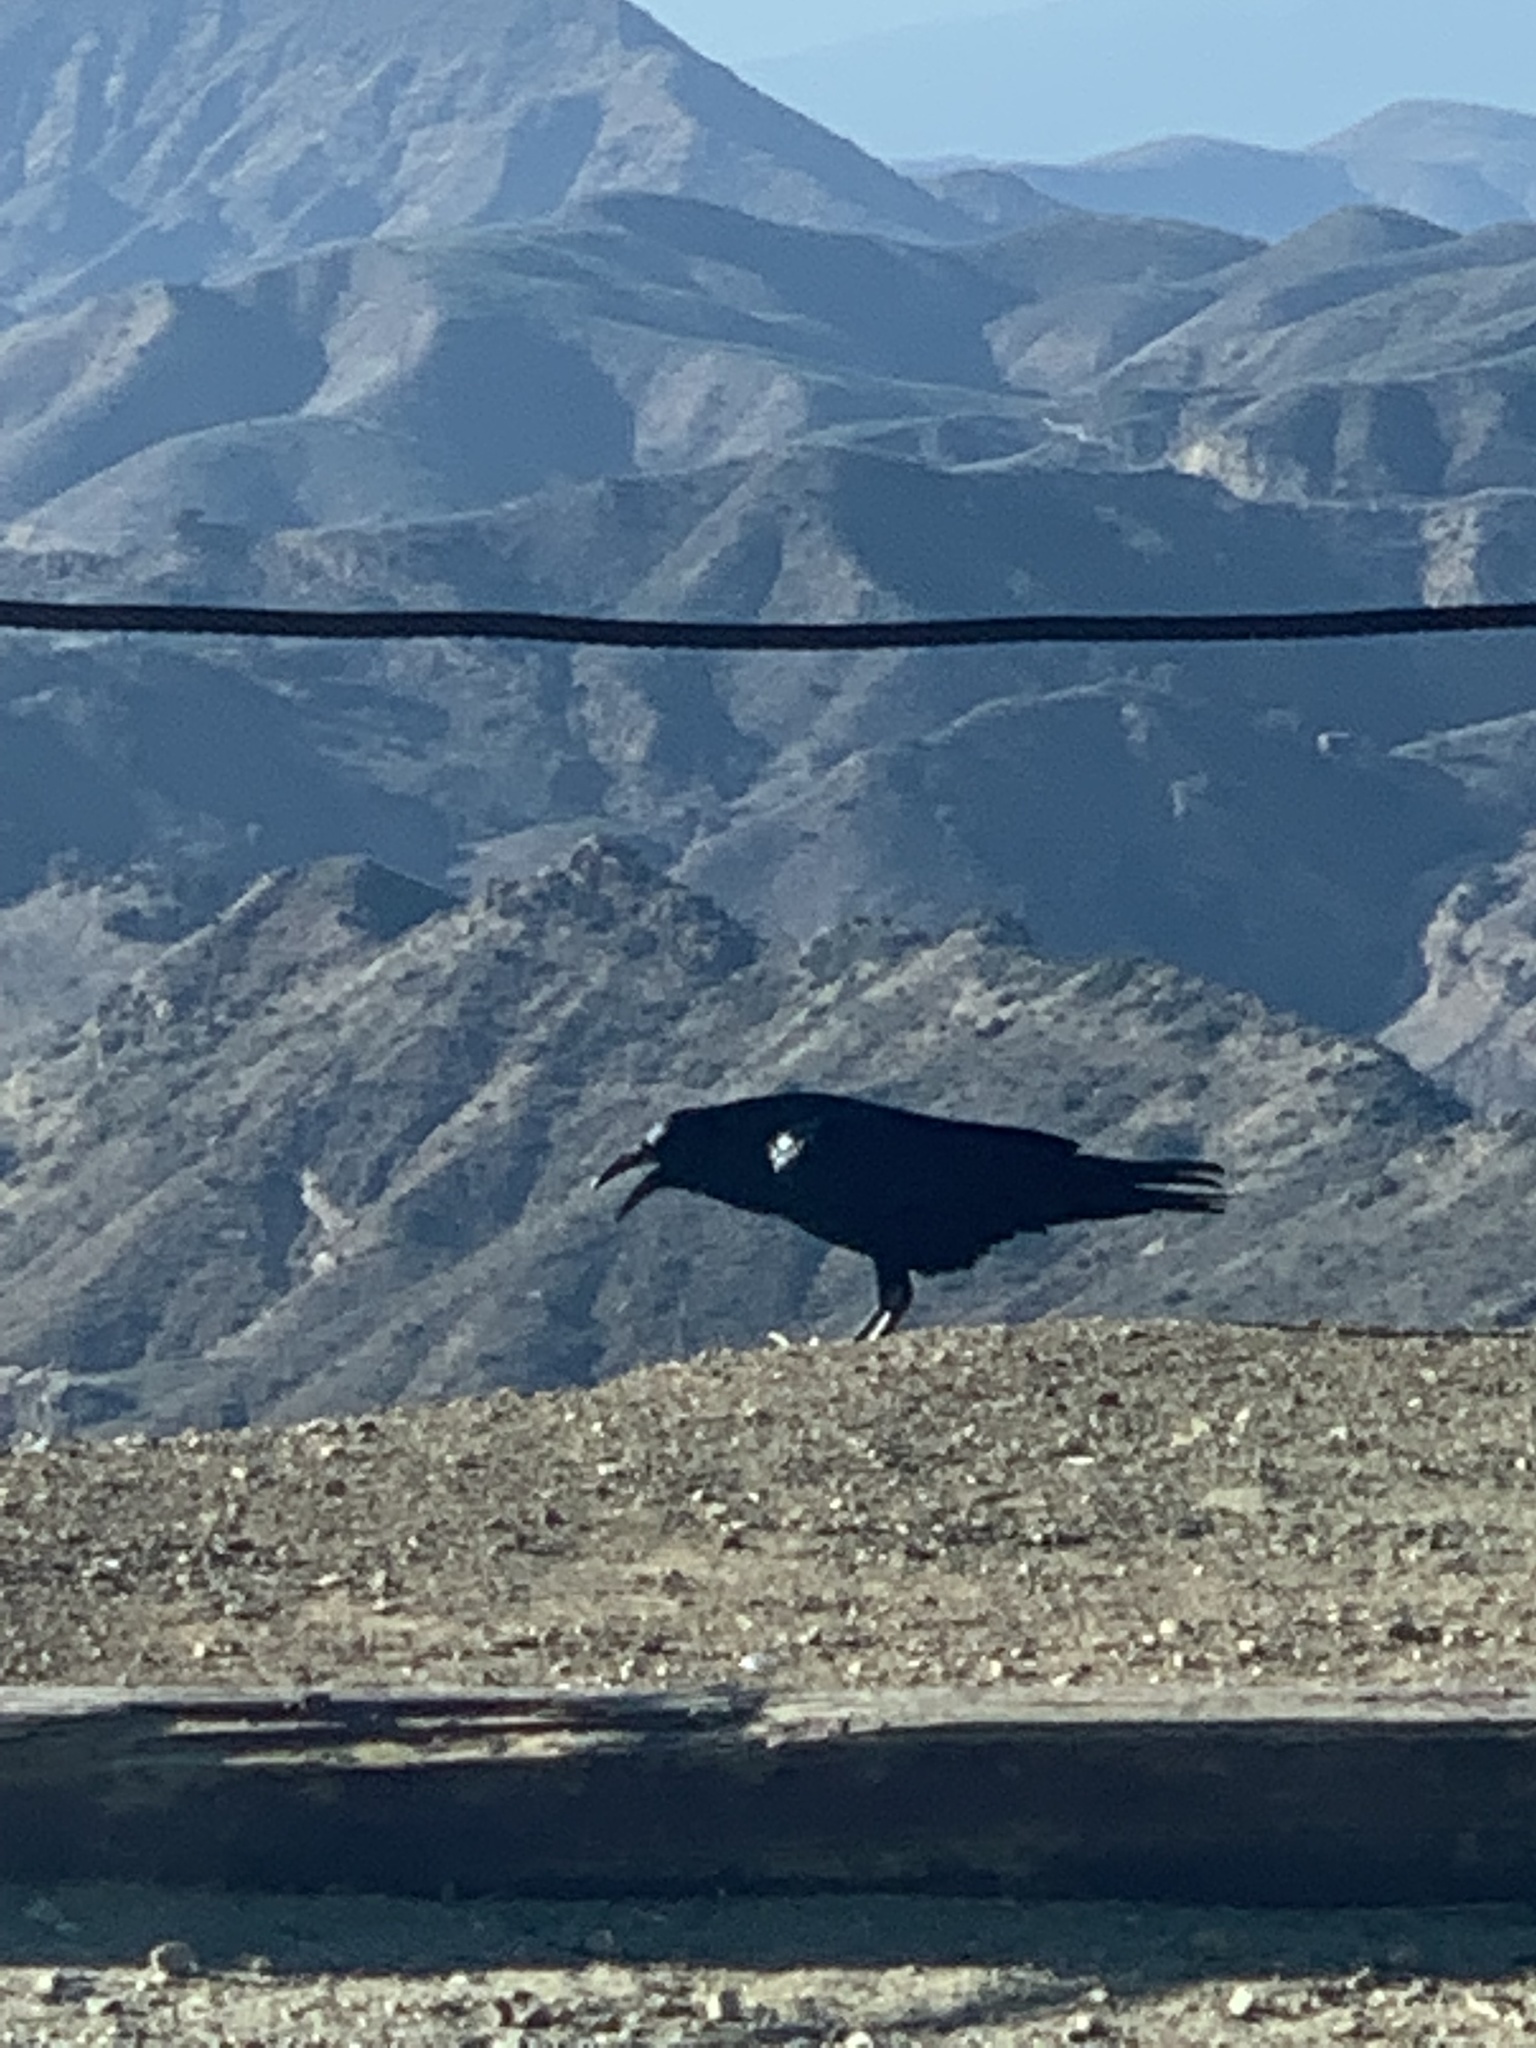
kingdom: Animalia
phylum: Chordata
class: Aves
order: Passeriformes
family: Corvidae
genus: Corvus
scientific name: Corvus corax
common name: Common raven
